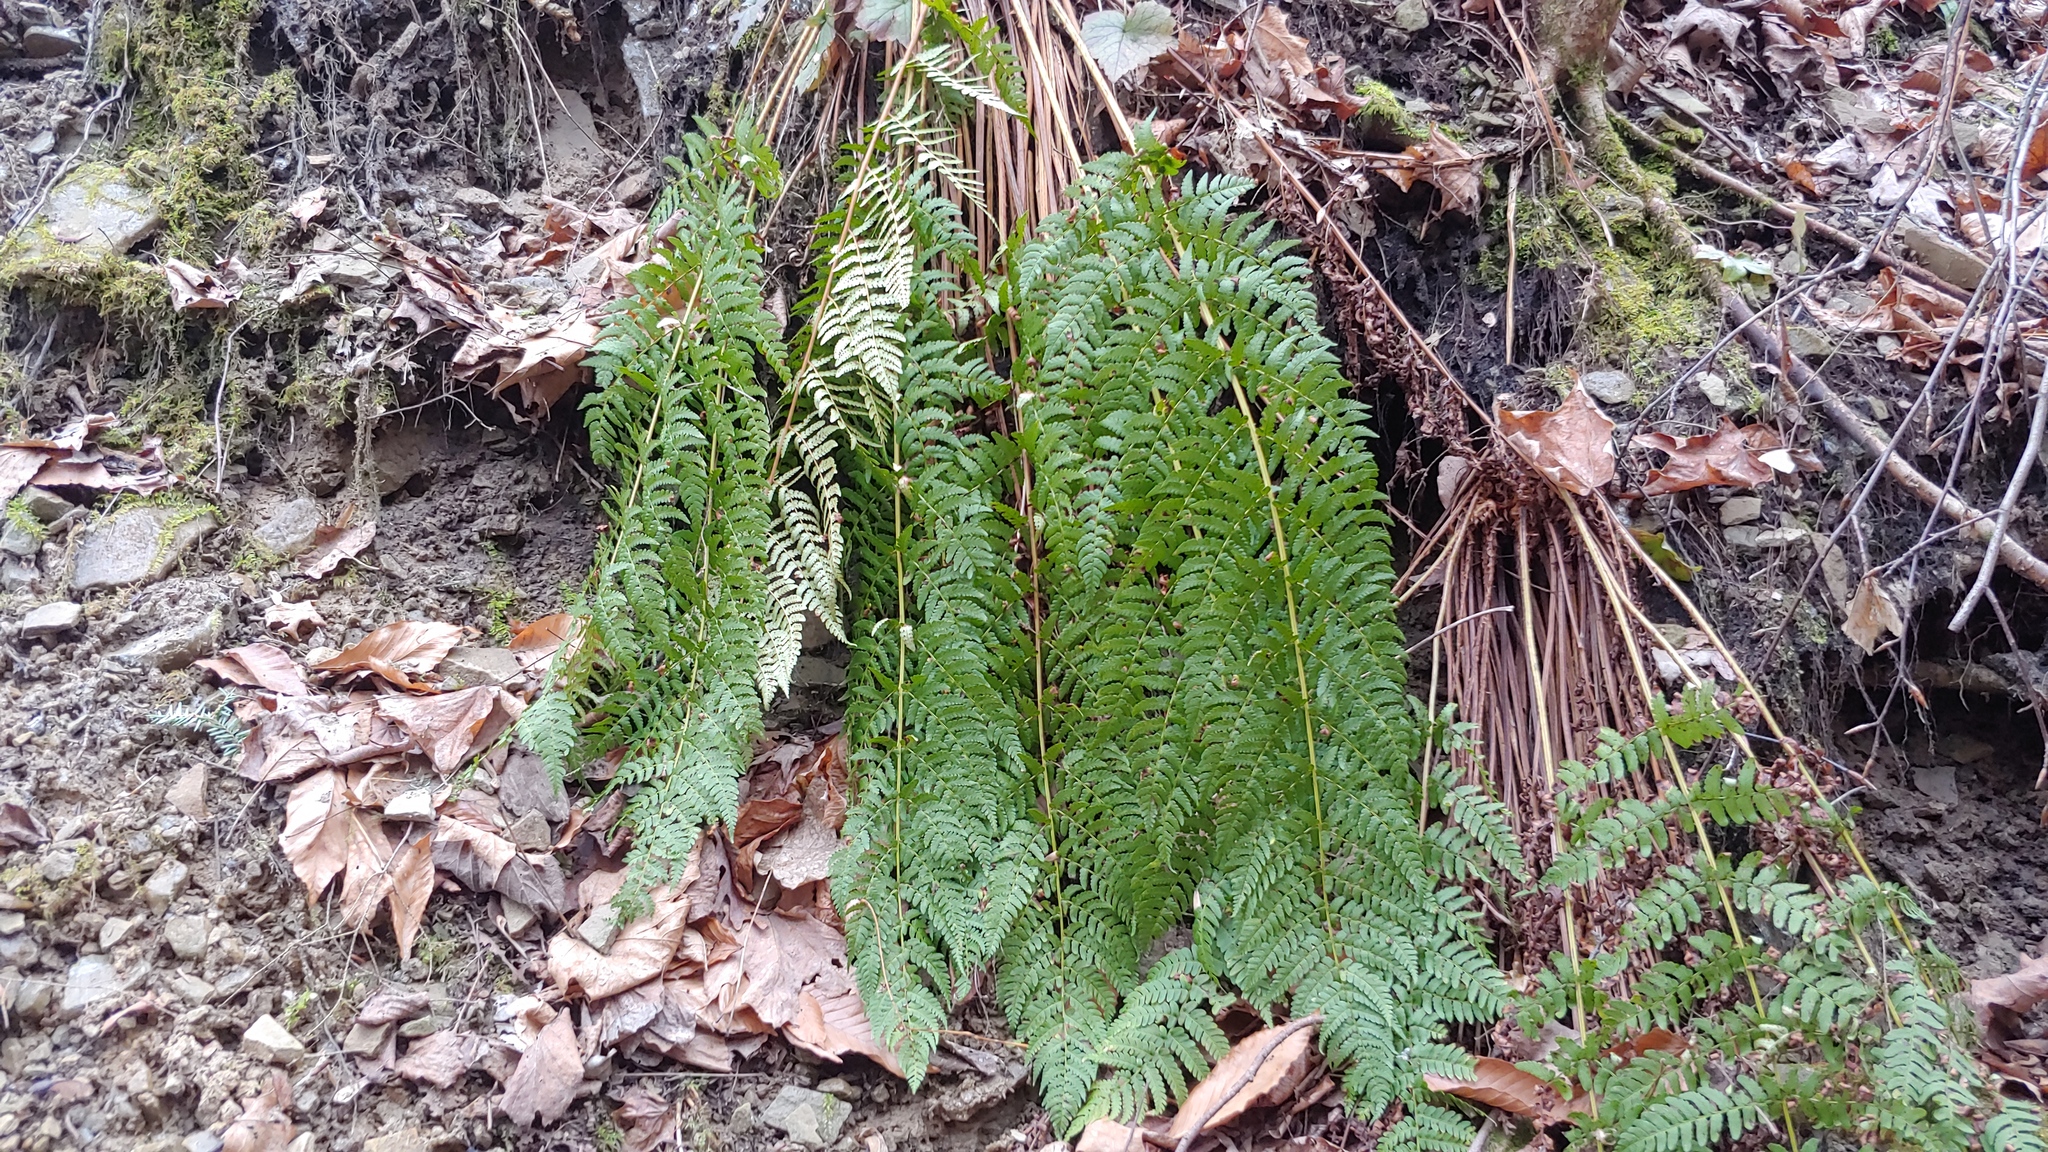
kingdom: Plantae
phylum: Tracheophyta
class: Polypodiopsida
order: Polypodiales
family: Dryopteridaceae
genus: Dryopteris
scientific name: Dryopteris marginalis
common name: Marginal wood fern
